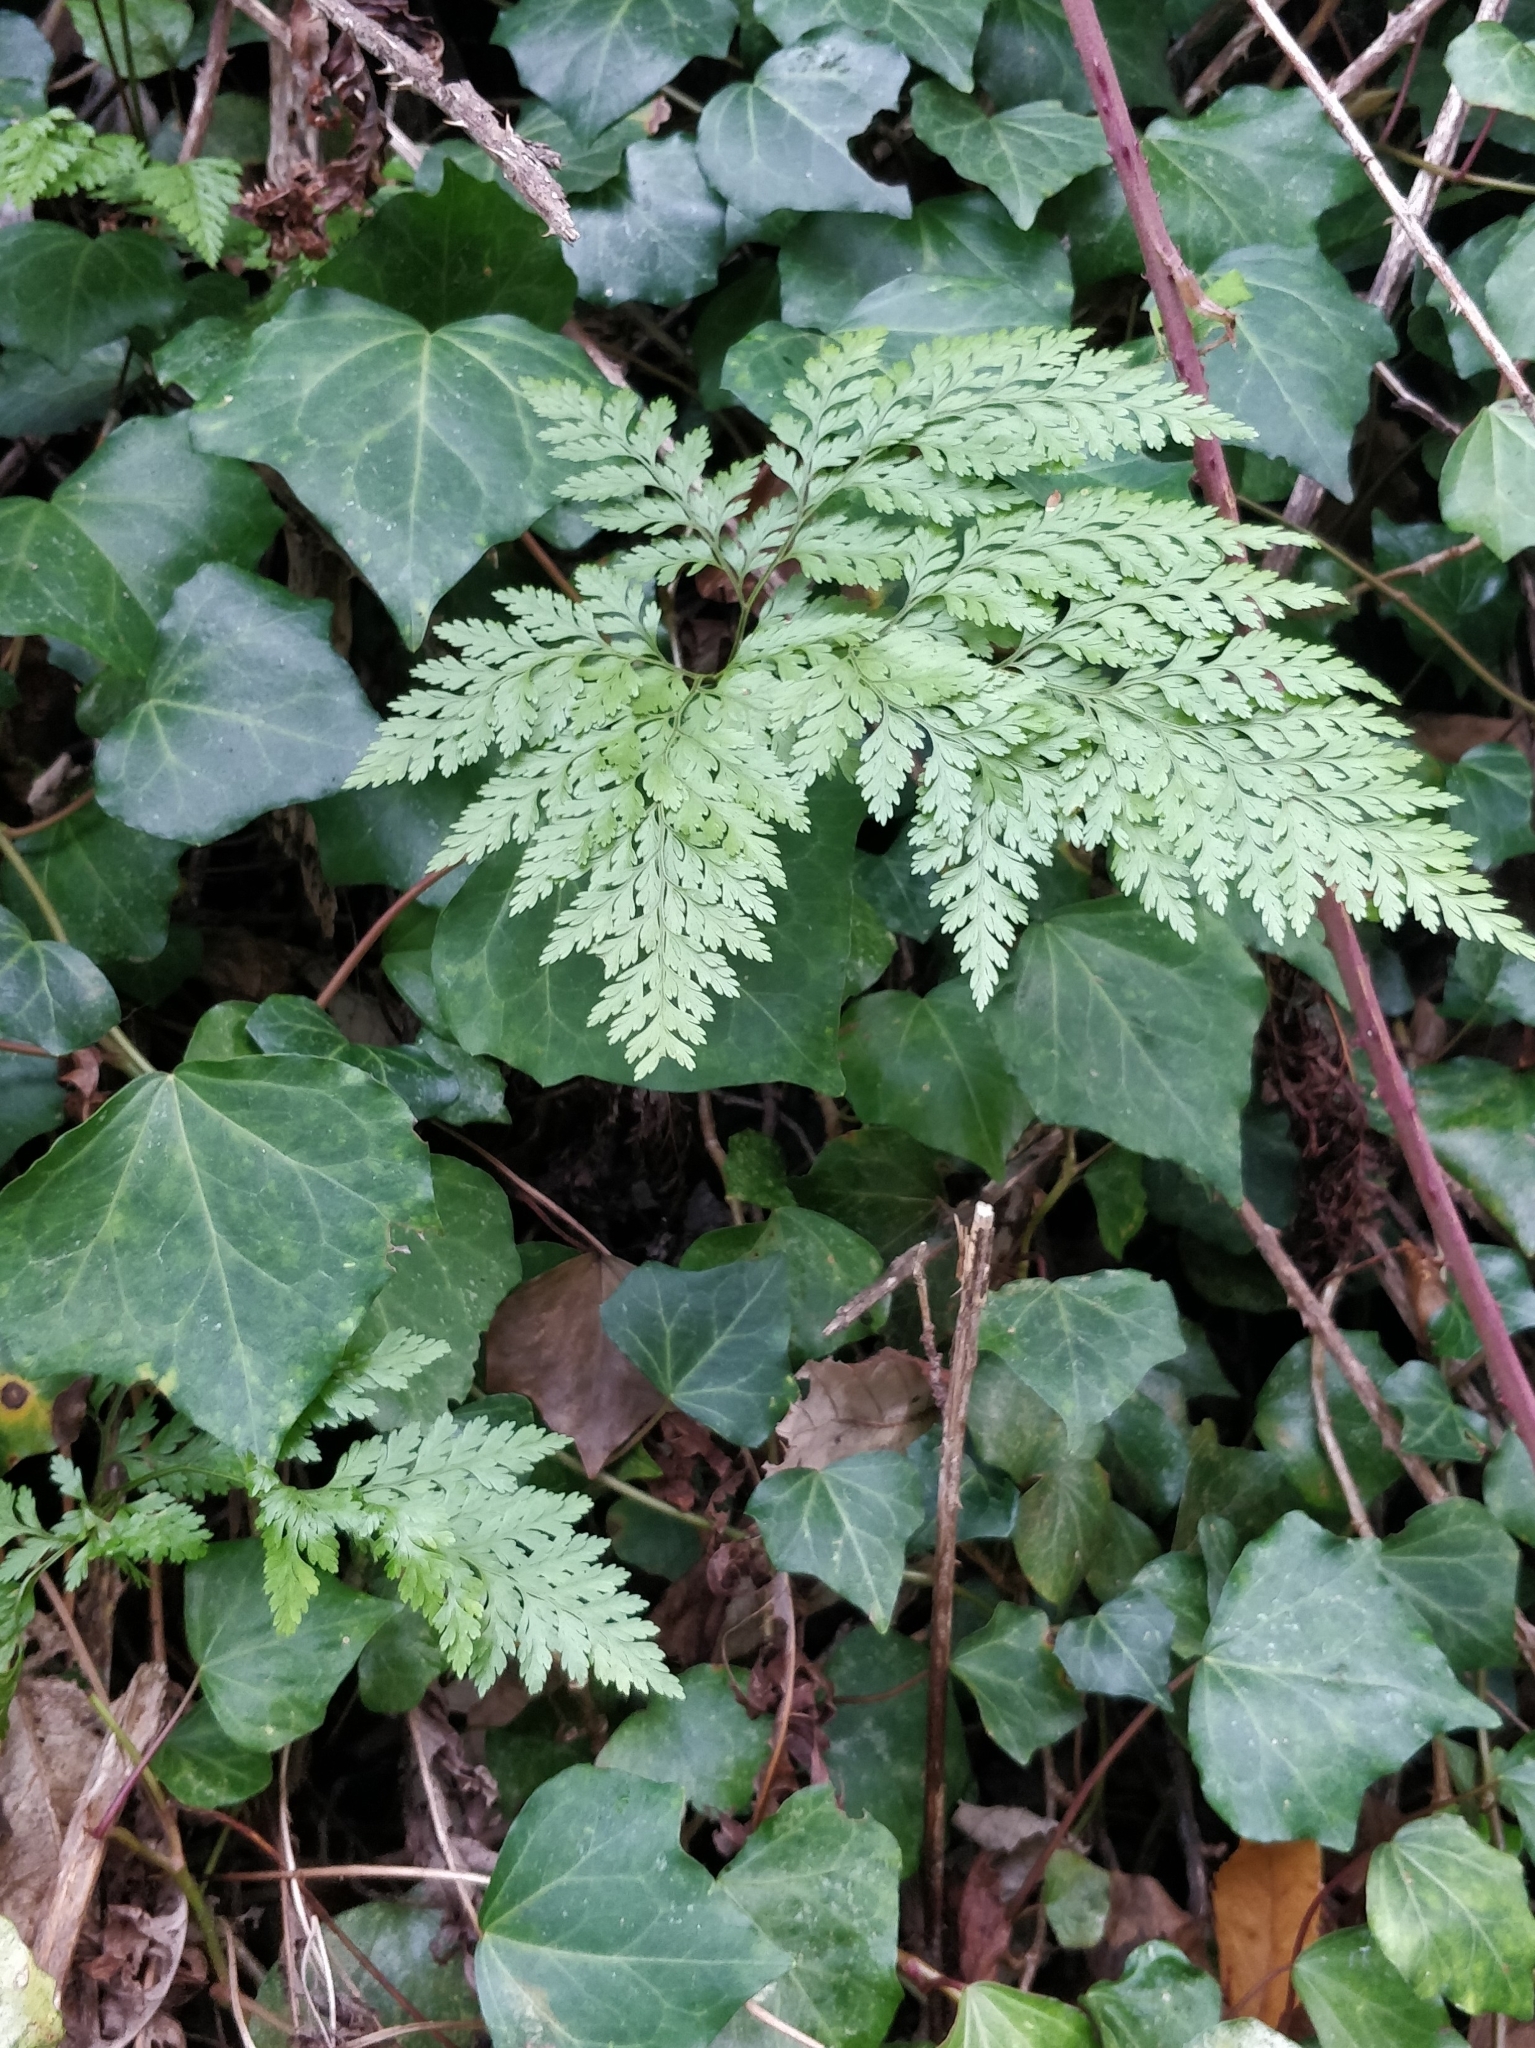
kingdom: Plantae
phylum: Tracheophyta
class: Polypodiopsida
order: Polypodiales
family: Davalliaceae
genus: Davallia
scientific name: Davallia canariensis
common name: Hare's-foot fern
